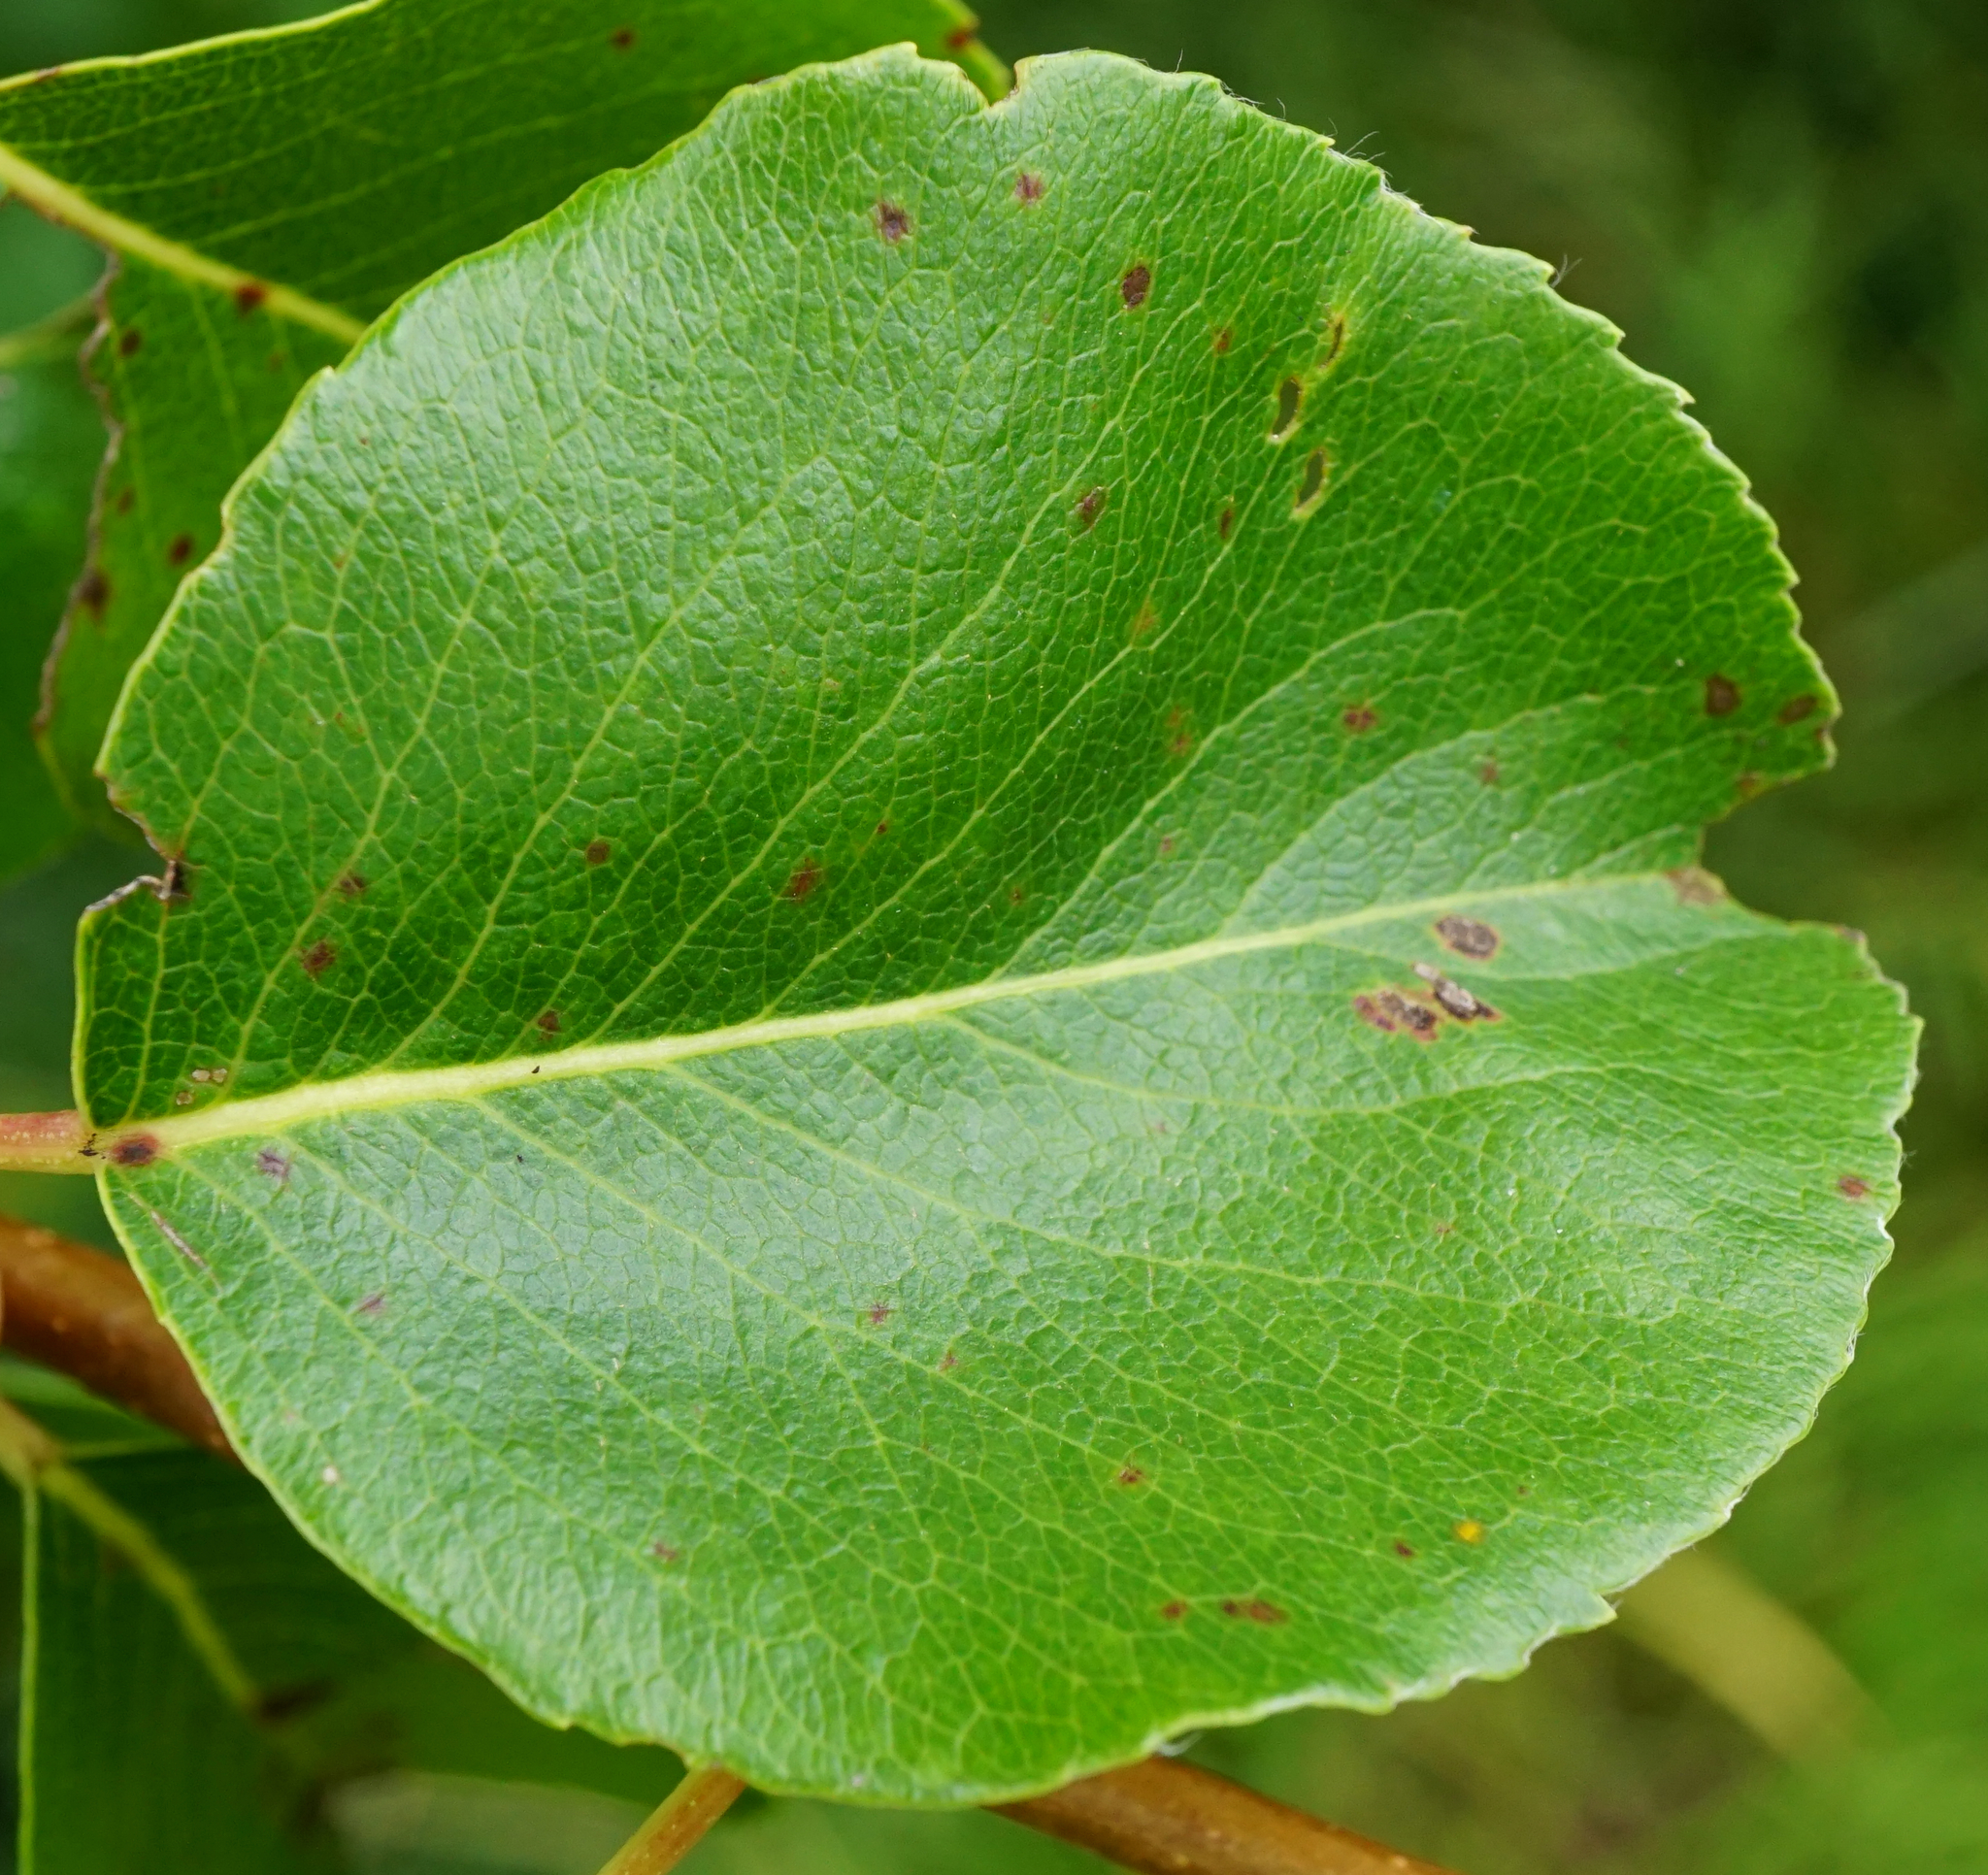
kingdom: Plantae
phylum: Tracheophyta
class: Magnoliopsida
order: Rosales
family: Rosaceae
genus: Pyrus
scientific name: Pyrus
